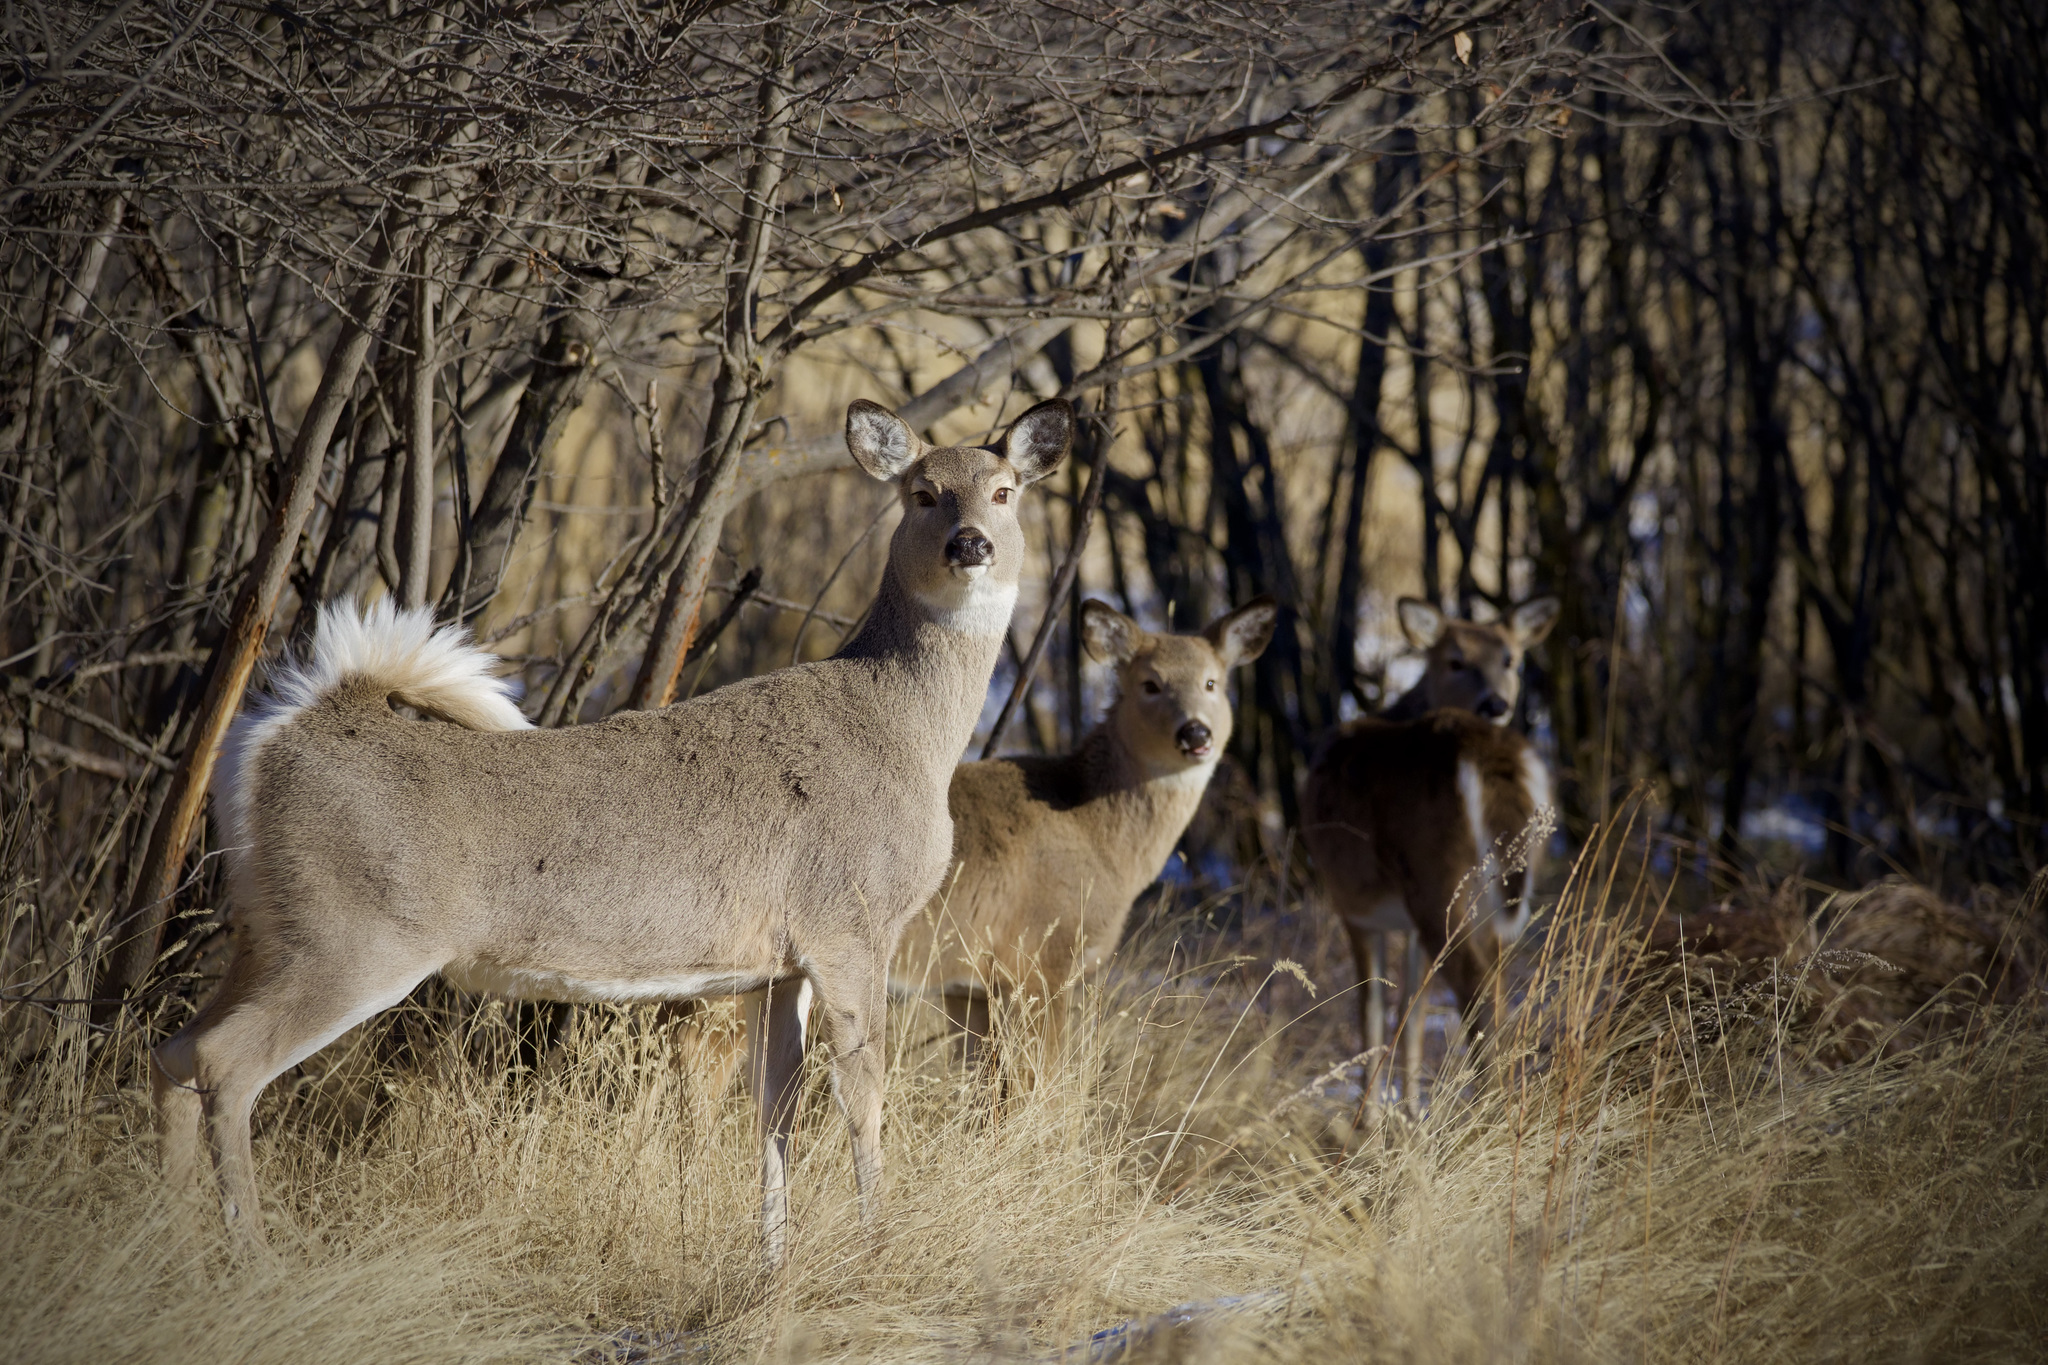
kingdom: Animalia
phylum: Chordata
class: Mammalia
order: Artiodactyla
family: Cervidae
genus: Odocoileus
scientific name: Odocoileus virginianus
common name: White-tailed deer
